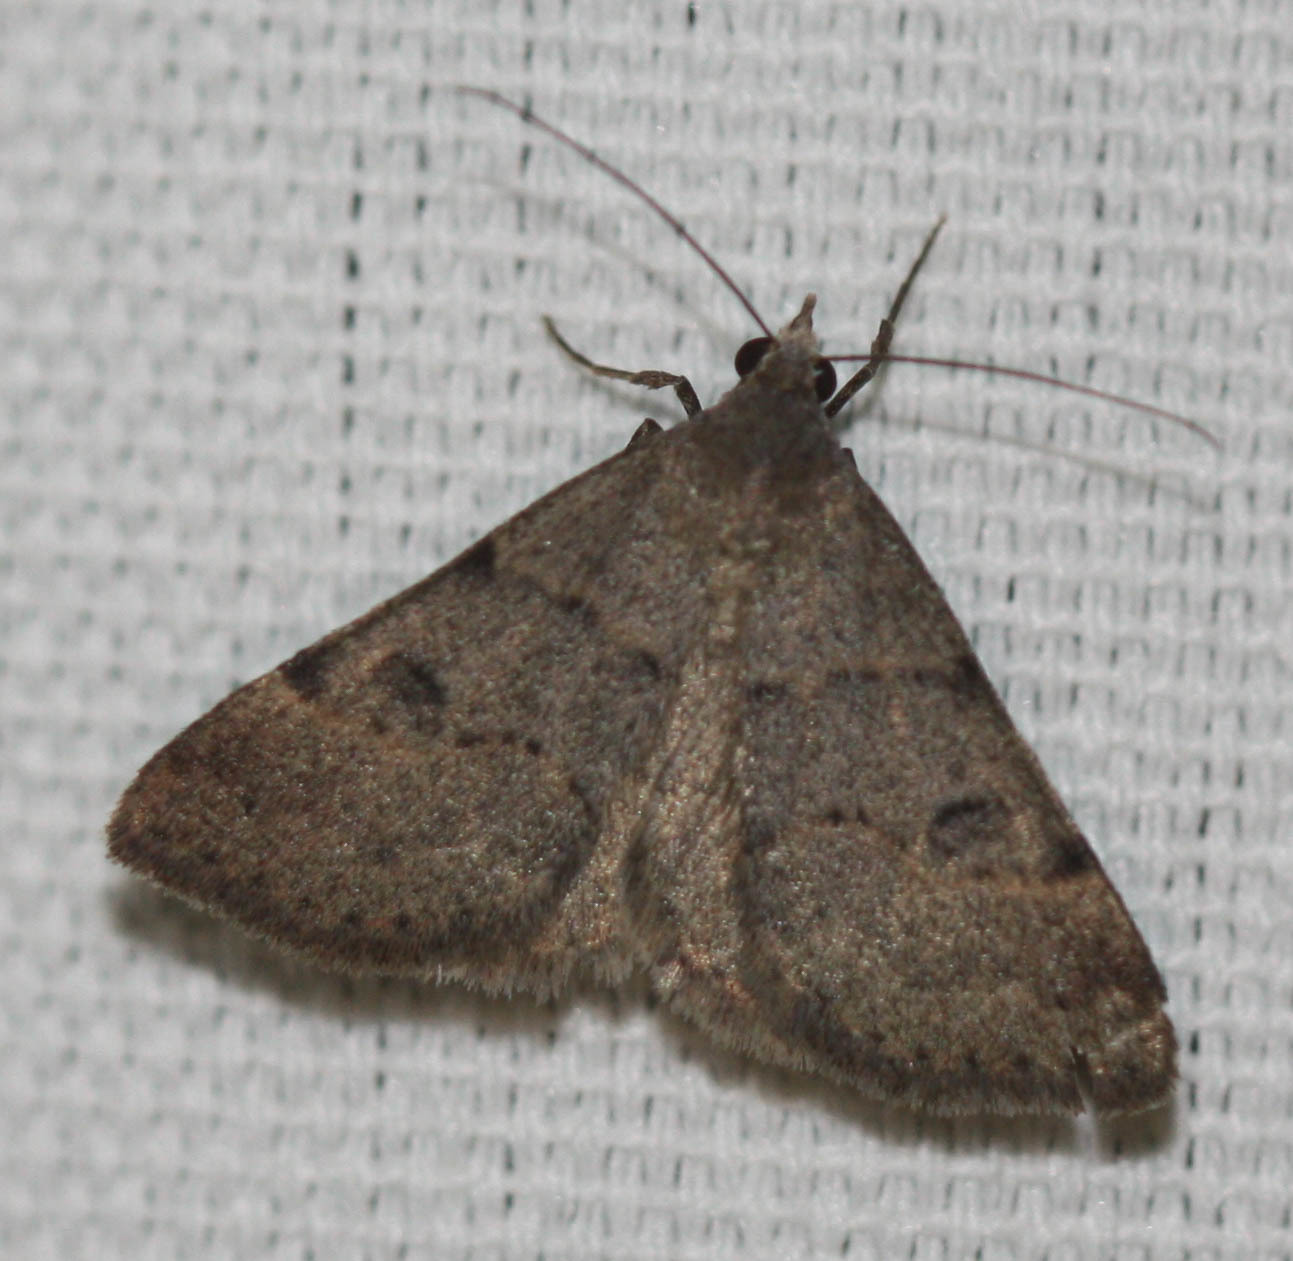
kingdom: Animalia
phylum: Arthropoda
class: Insecta
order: Lepidoptera
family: Erebidae
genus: Hemeroplanis
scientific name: Hemeroplanis historialis
